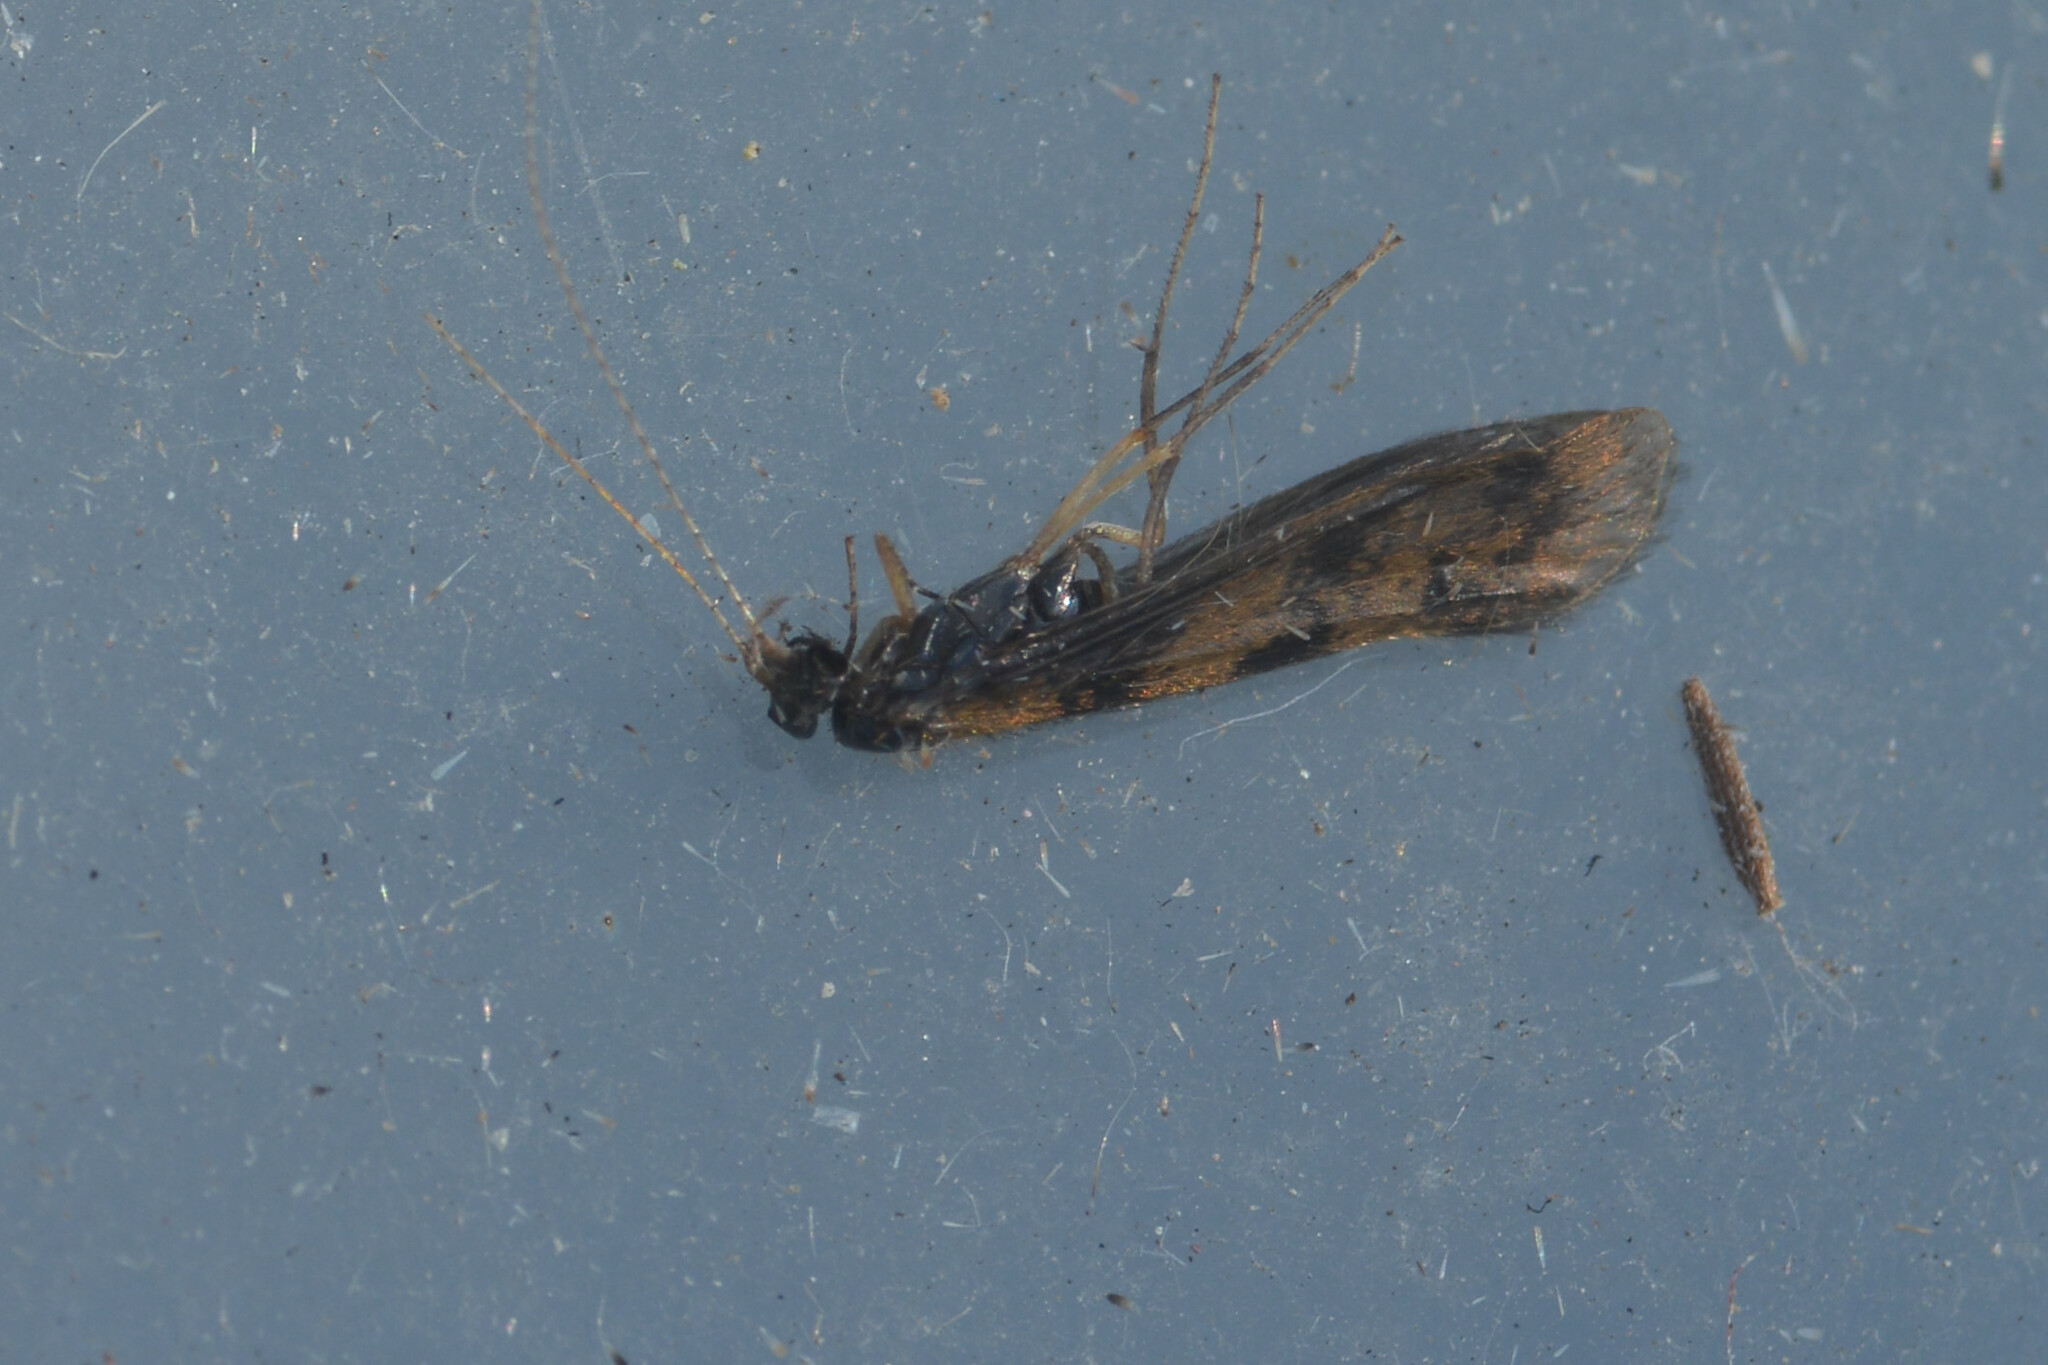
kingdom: Animalia
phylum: Arthropoda
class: Insecta
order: Trichoptera
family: Leptoceridae
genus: Mystacides
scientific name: Mystacides longicornis
